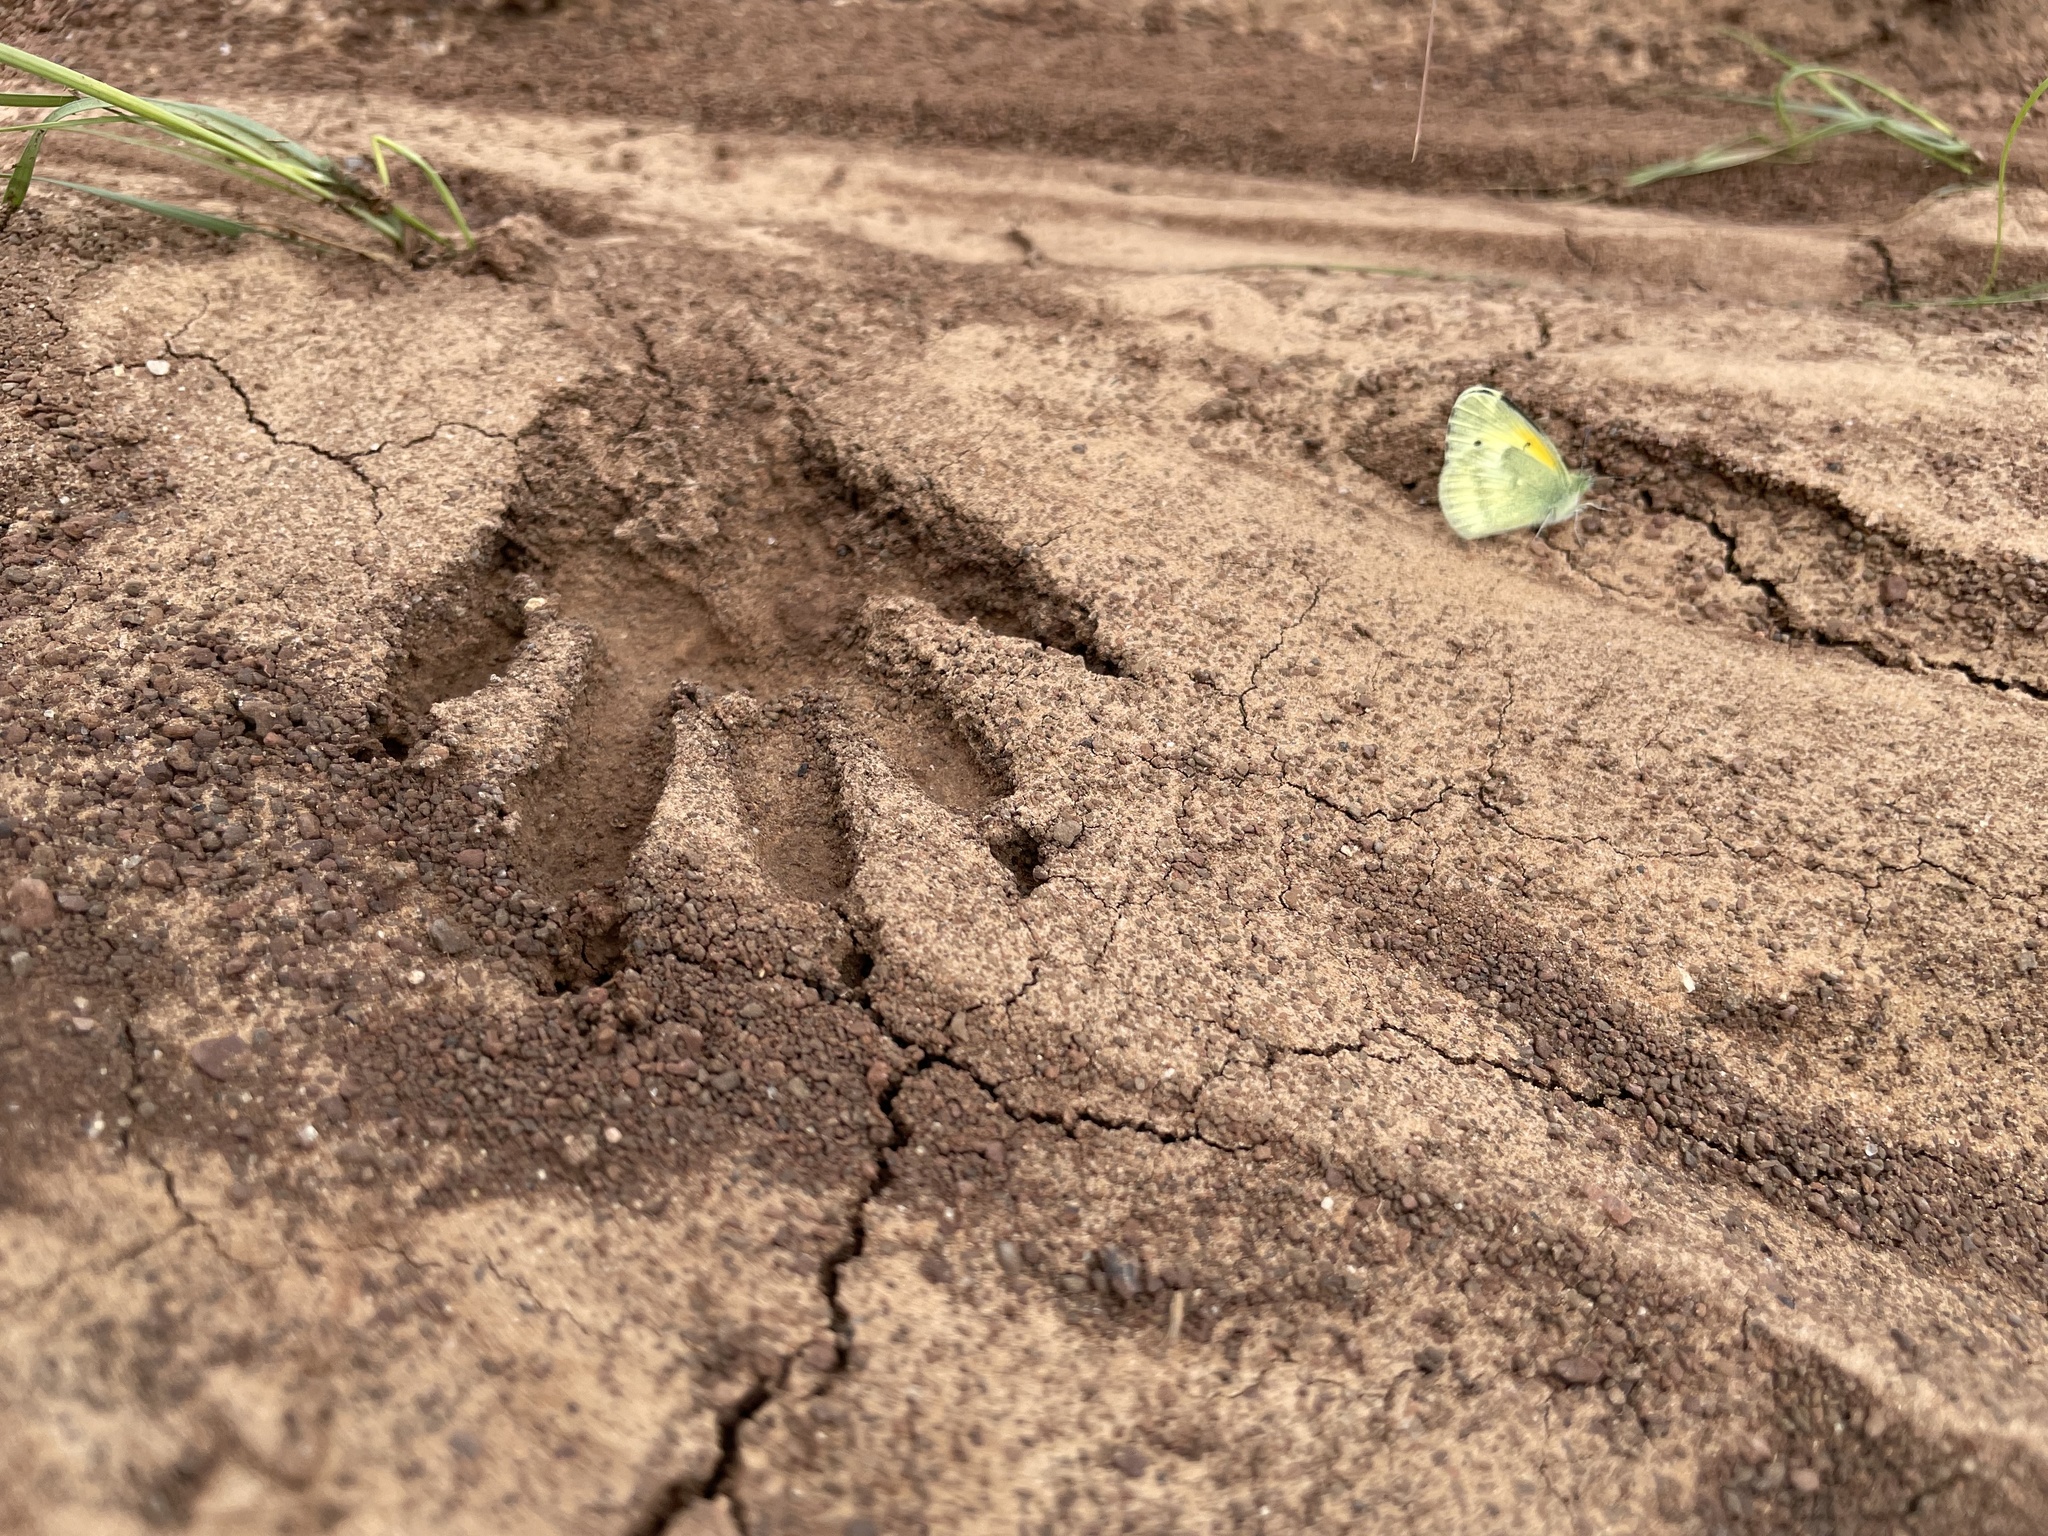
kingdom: Animalia
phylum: Arthropoda
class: Insecta
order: Lepidoptera
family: Pieridae
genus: Nathalis
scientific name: Nathalis iole
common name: Dainty sulphur
